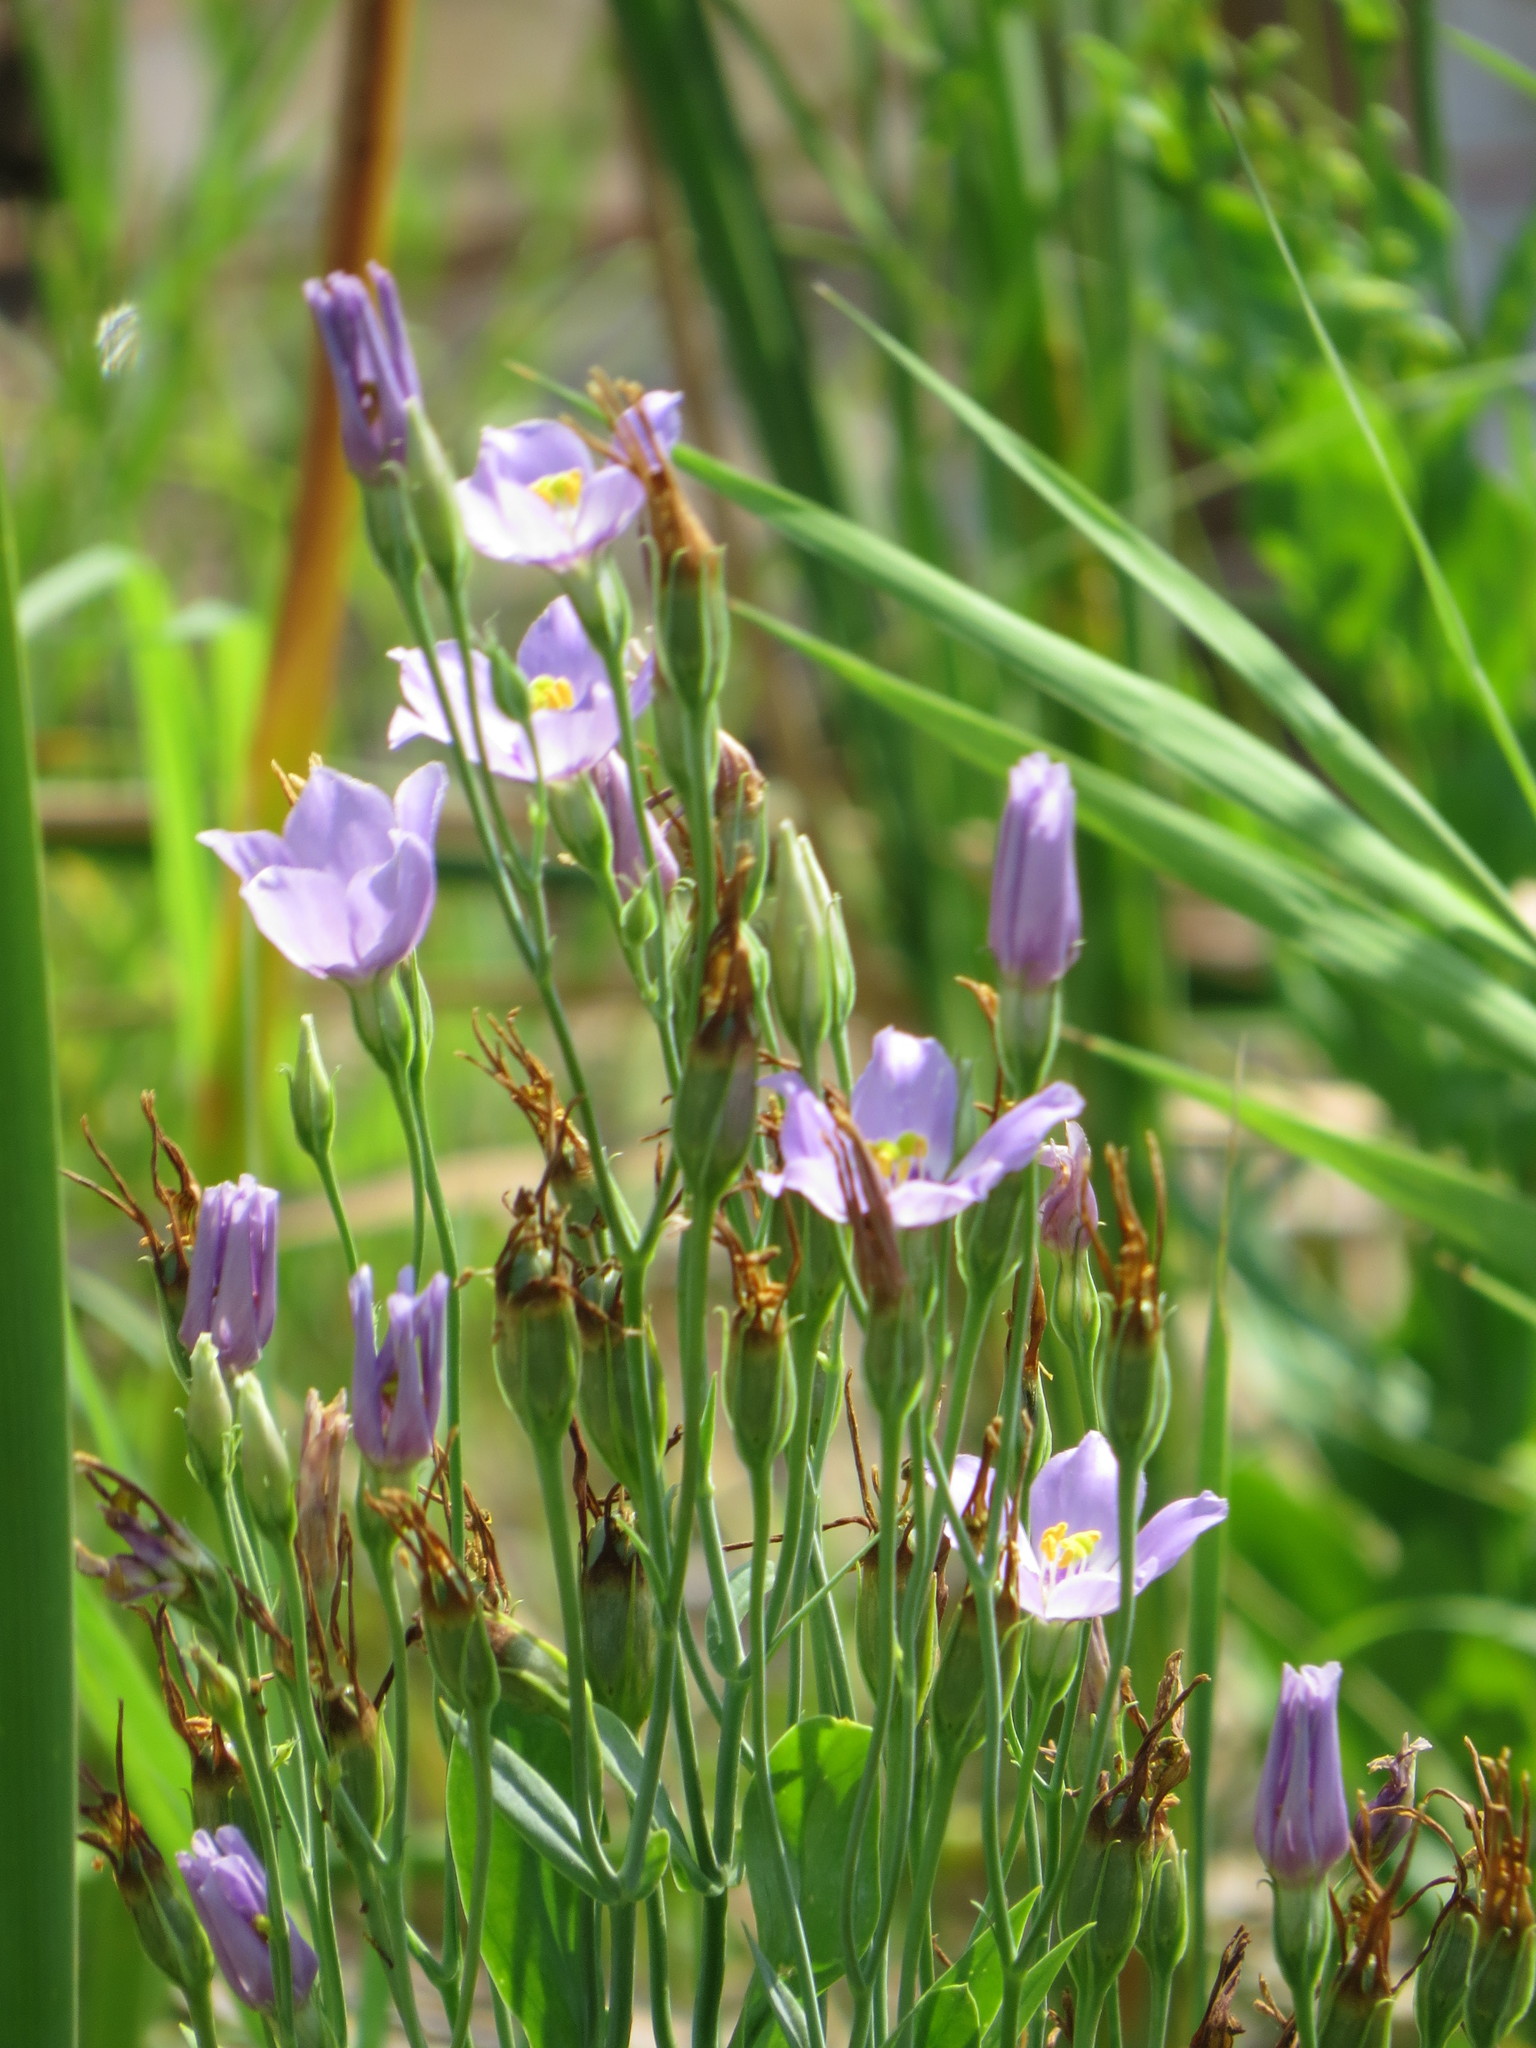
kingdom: Plantae
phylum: Tracheophyta
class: Magnoliopsida
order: Gentianales
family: Gentianaceae
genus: Eustoma
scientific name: Eustoma exaltatum
